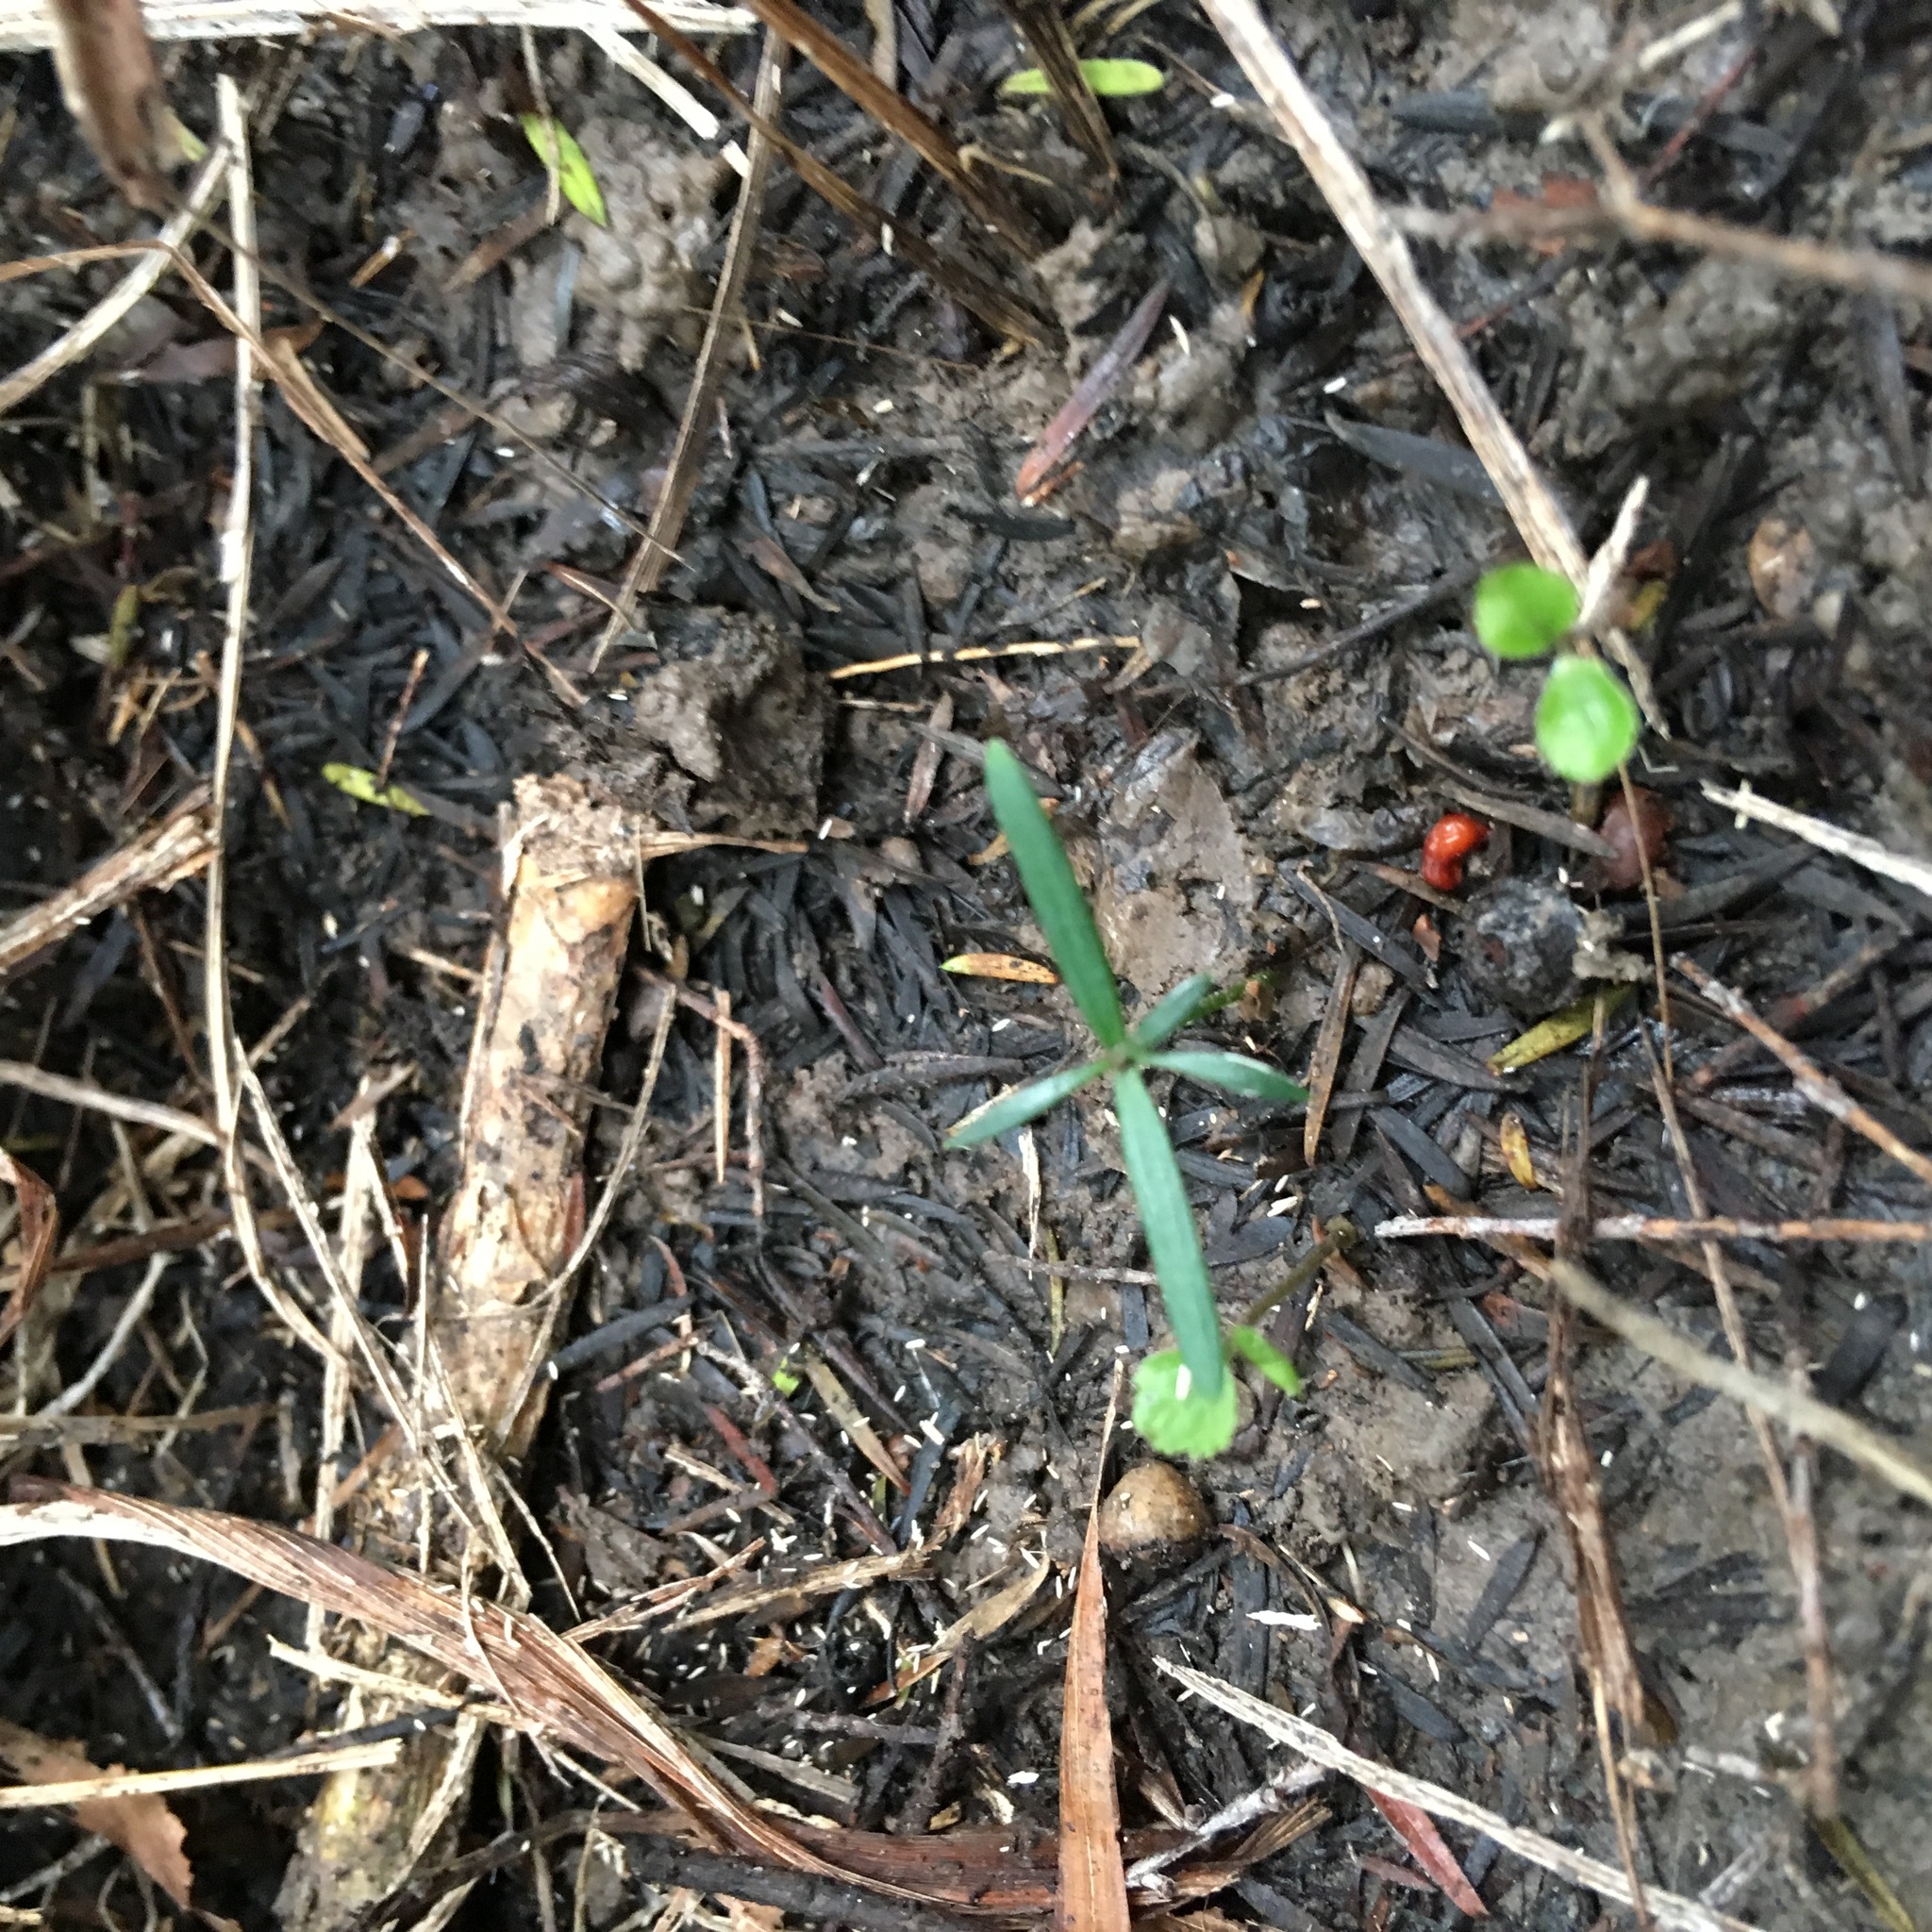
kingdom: Plantae
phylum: Tracheophyta
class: Pinopsida
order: Pinales
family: Podocarpaceae
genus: Podocarpus
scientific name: Podocarpus totara
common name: Totara
